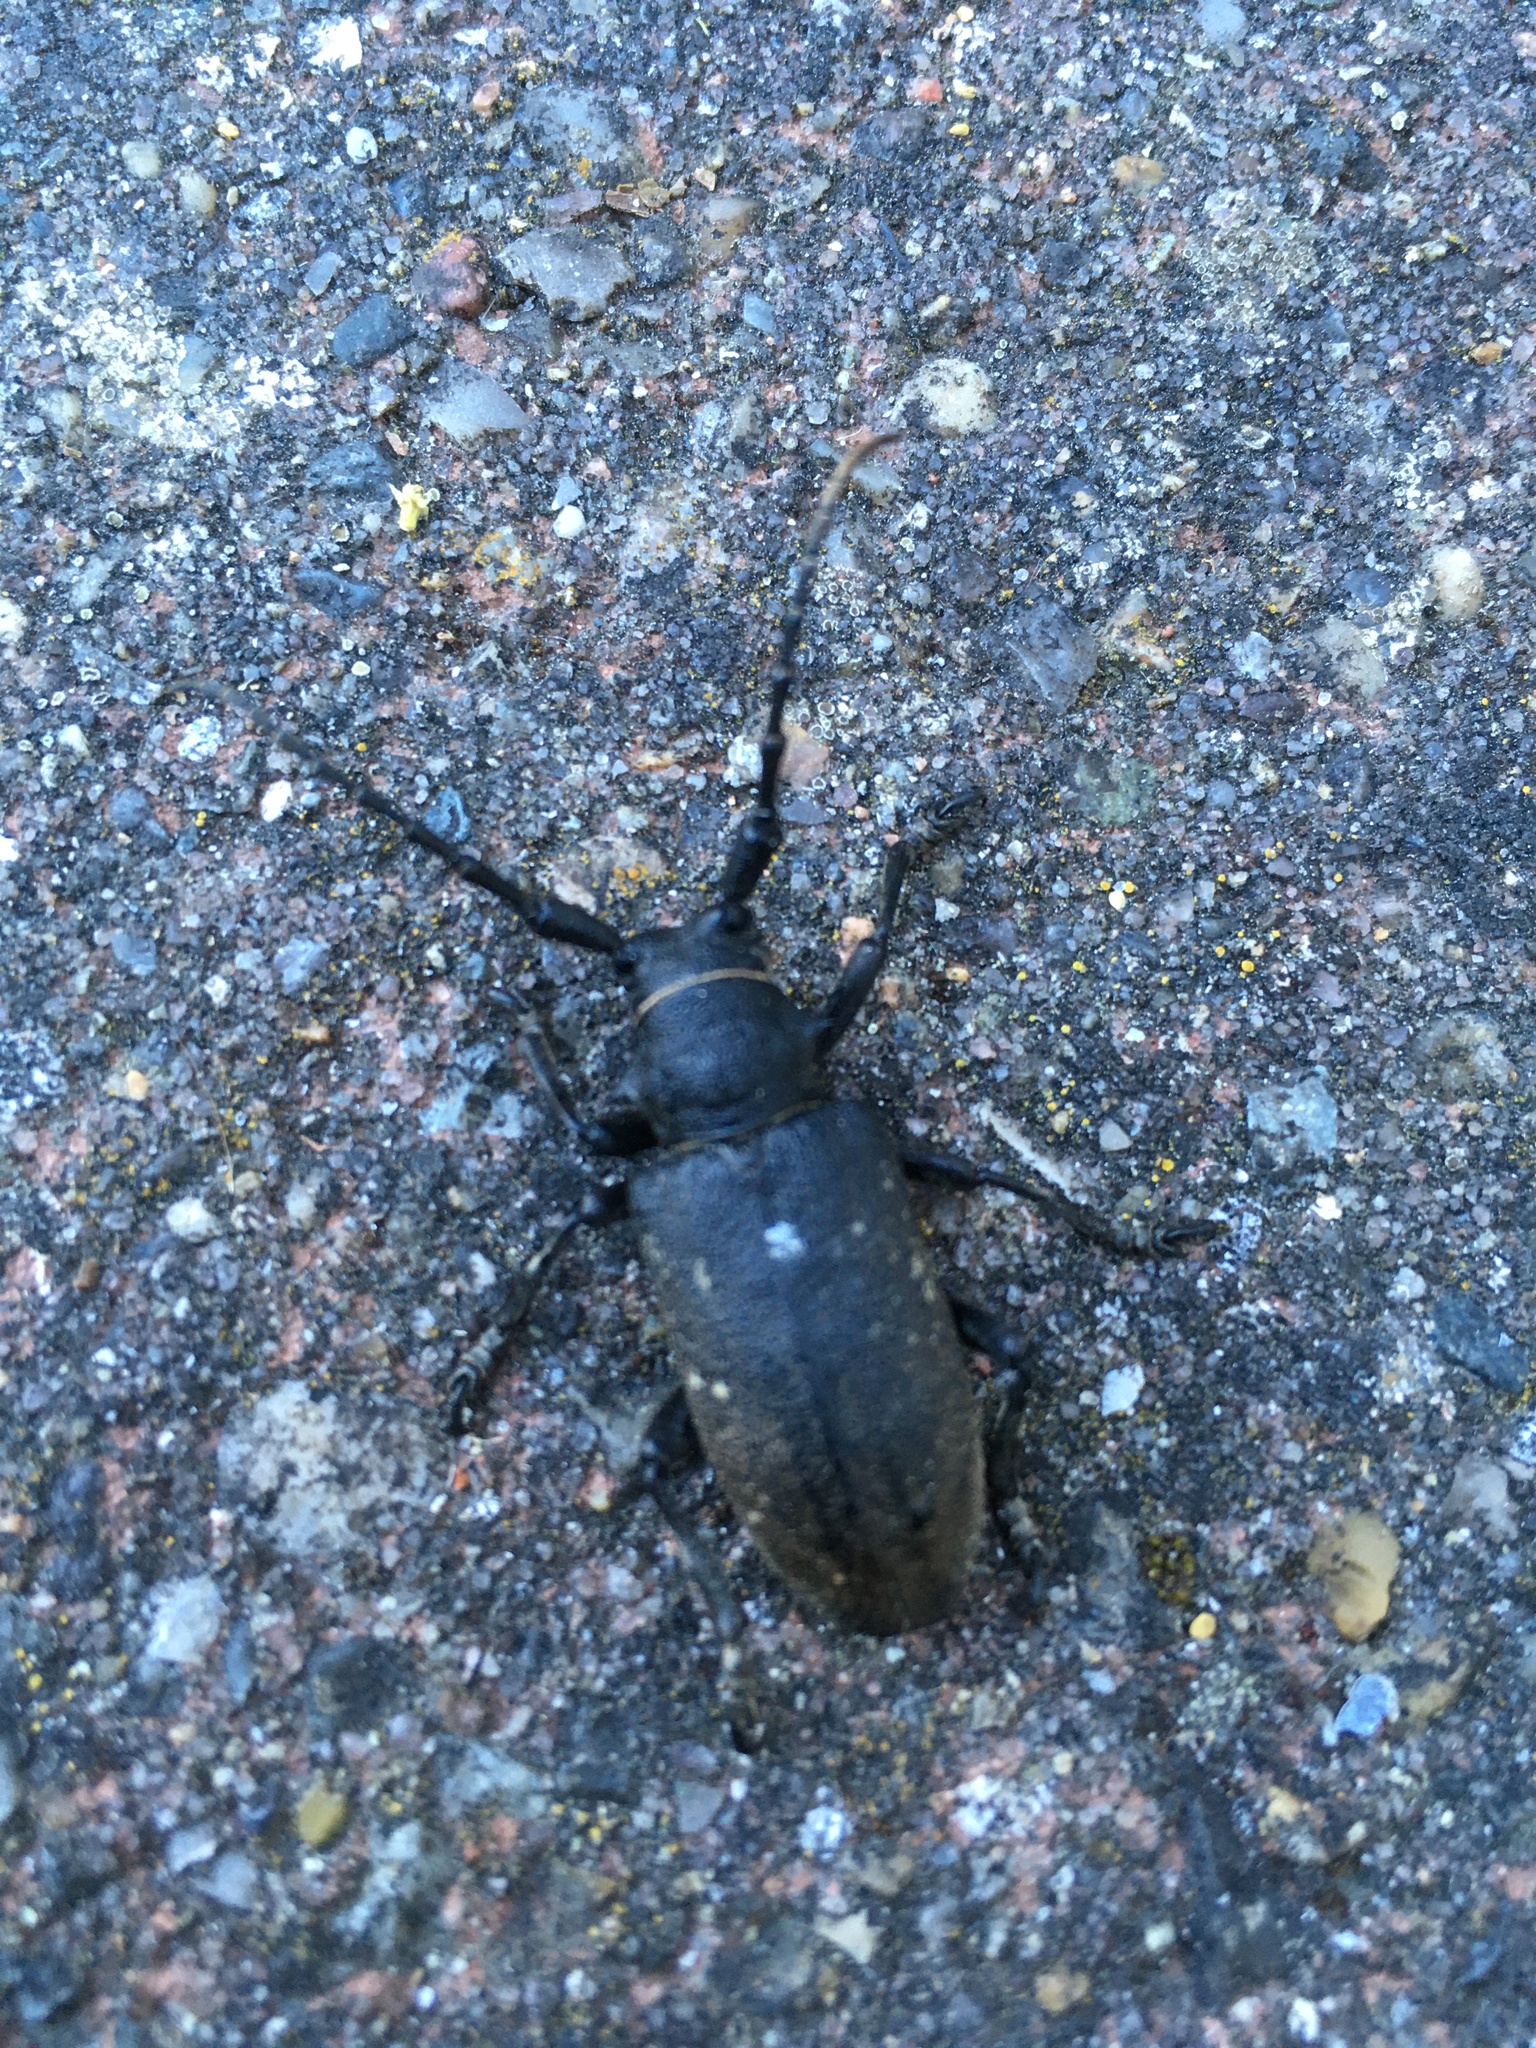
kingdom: Animalia
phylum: Arthropoda
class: Insecta
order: Coleoptera
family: Cerambycidae
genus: Lamia
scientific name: Lamia textor
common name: Weaver beetle
